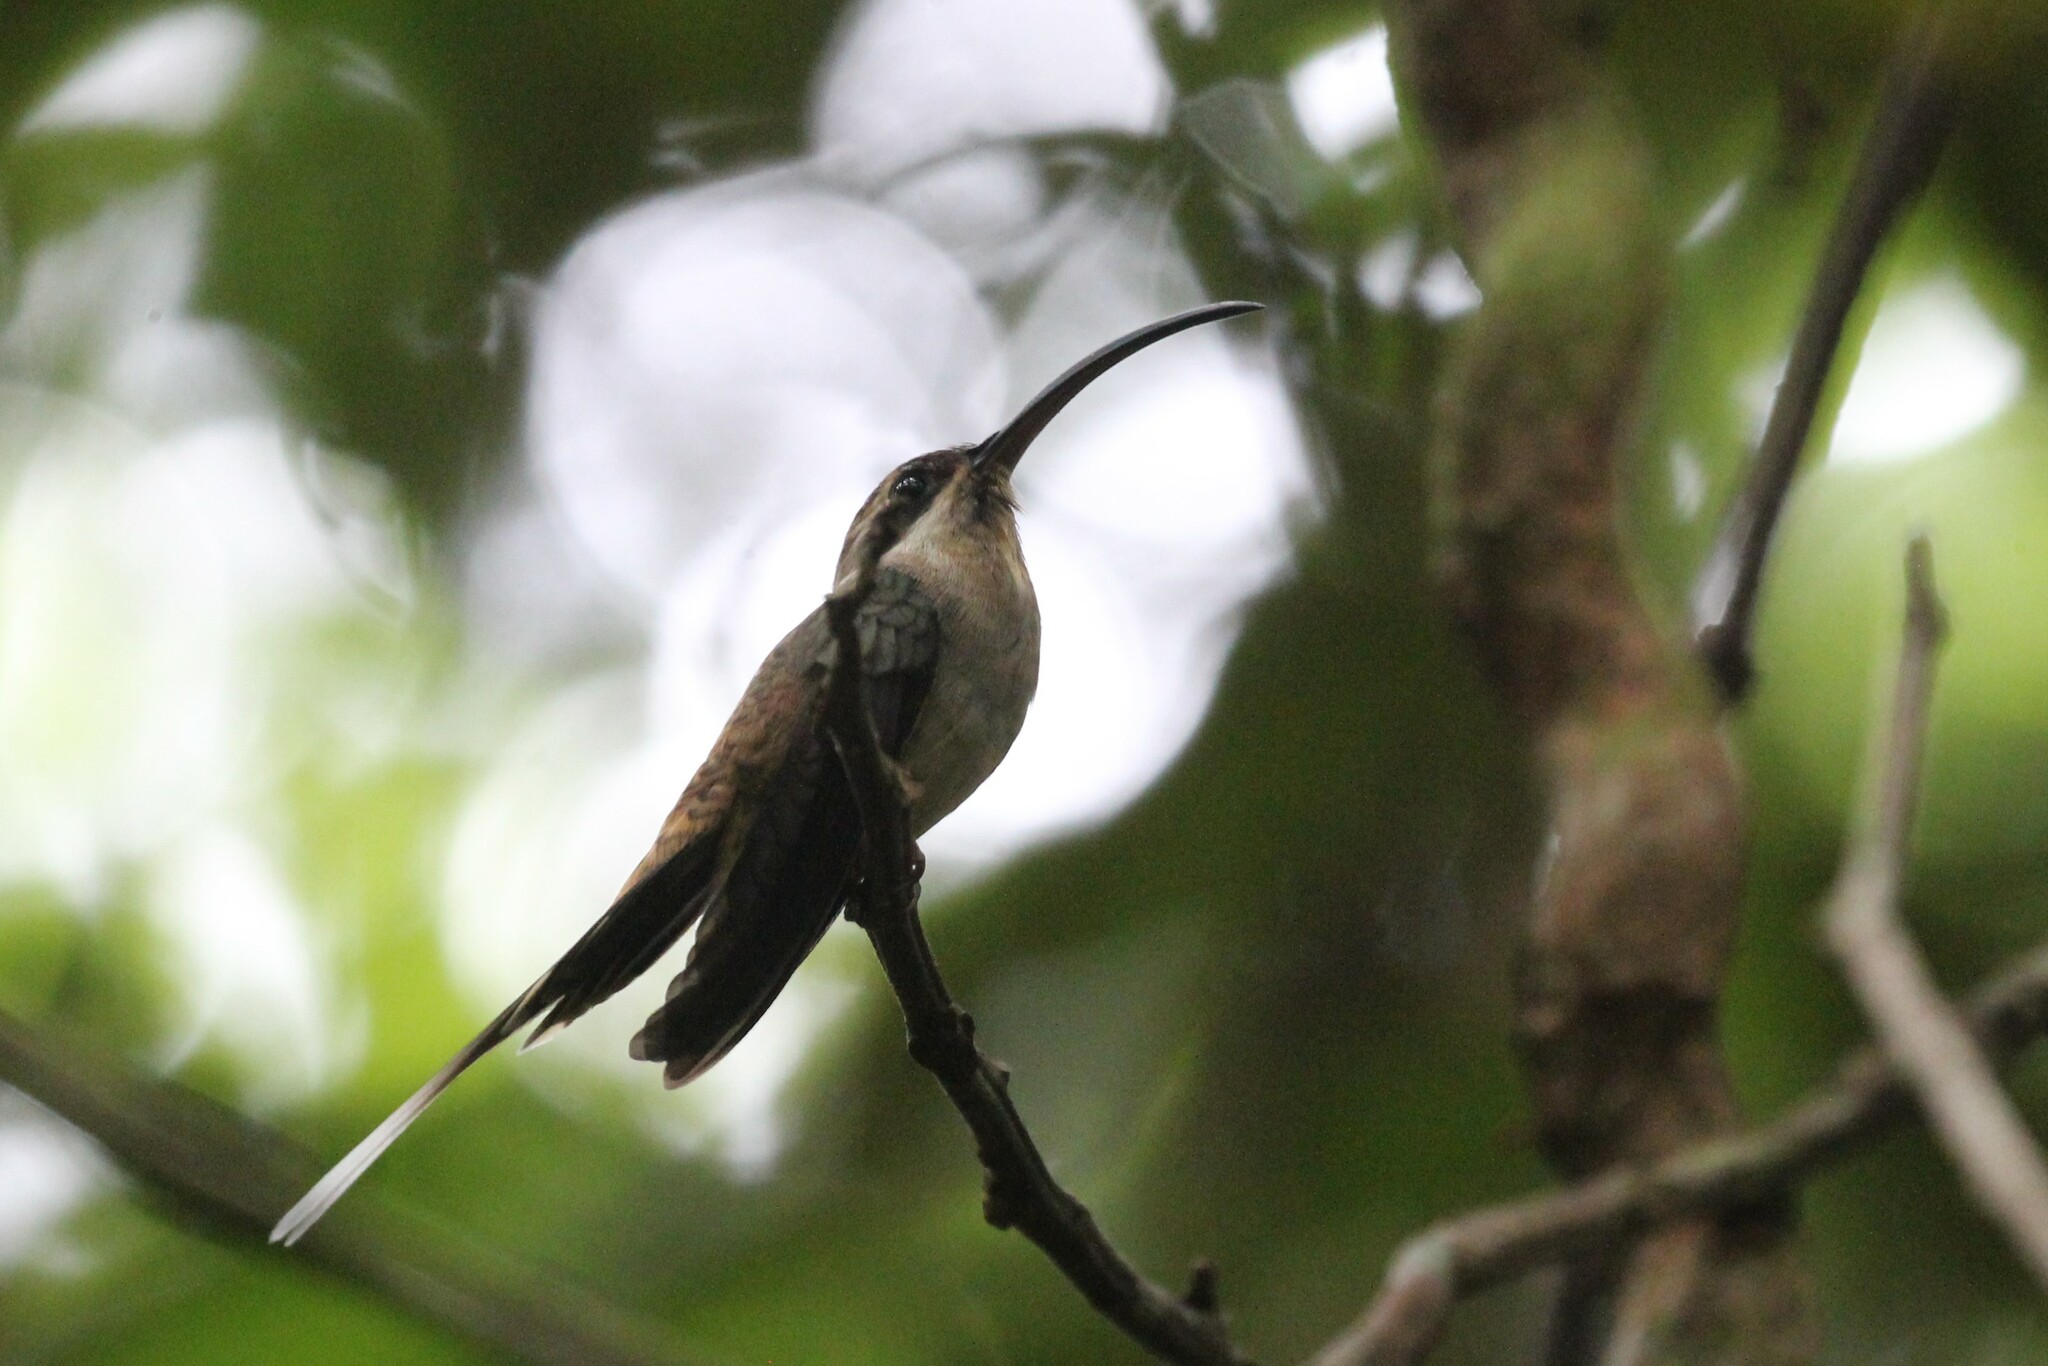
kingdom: Animalia
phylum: Chordata
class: Aves
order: Apodiformes
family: Trochilidae
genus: Phaethornis
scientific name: Phaethornis longirostris
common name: Long-billed hermit
